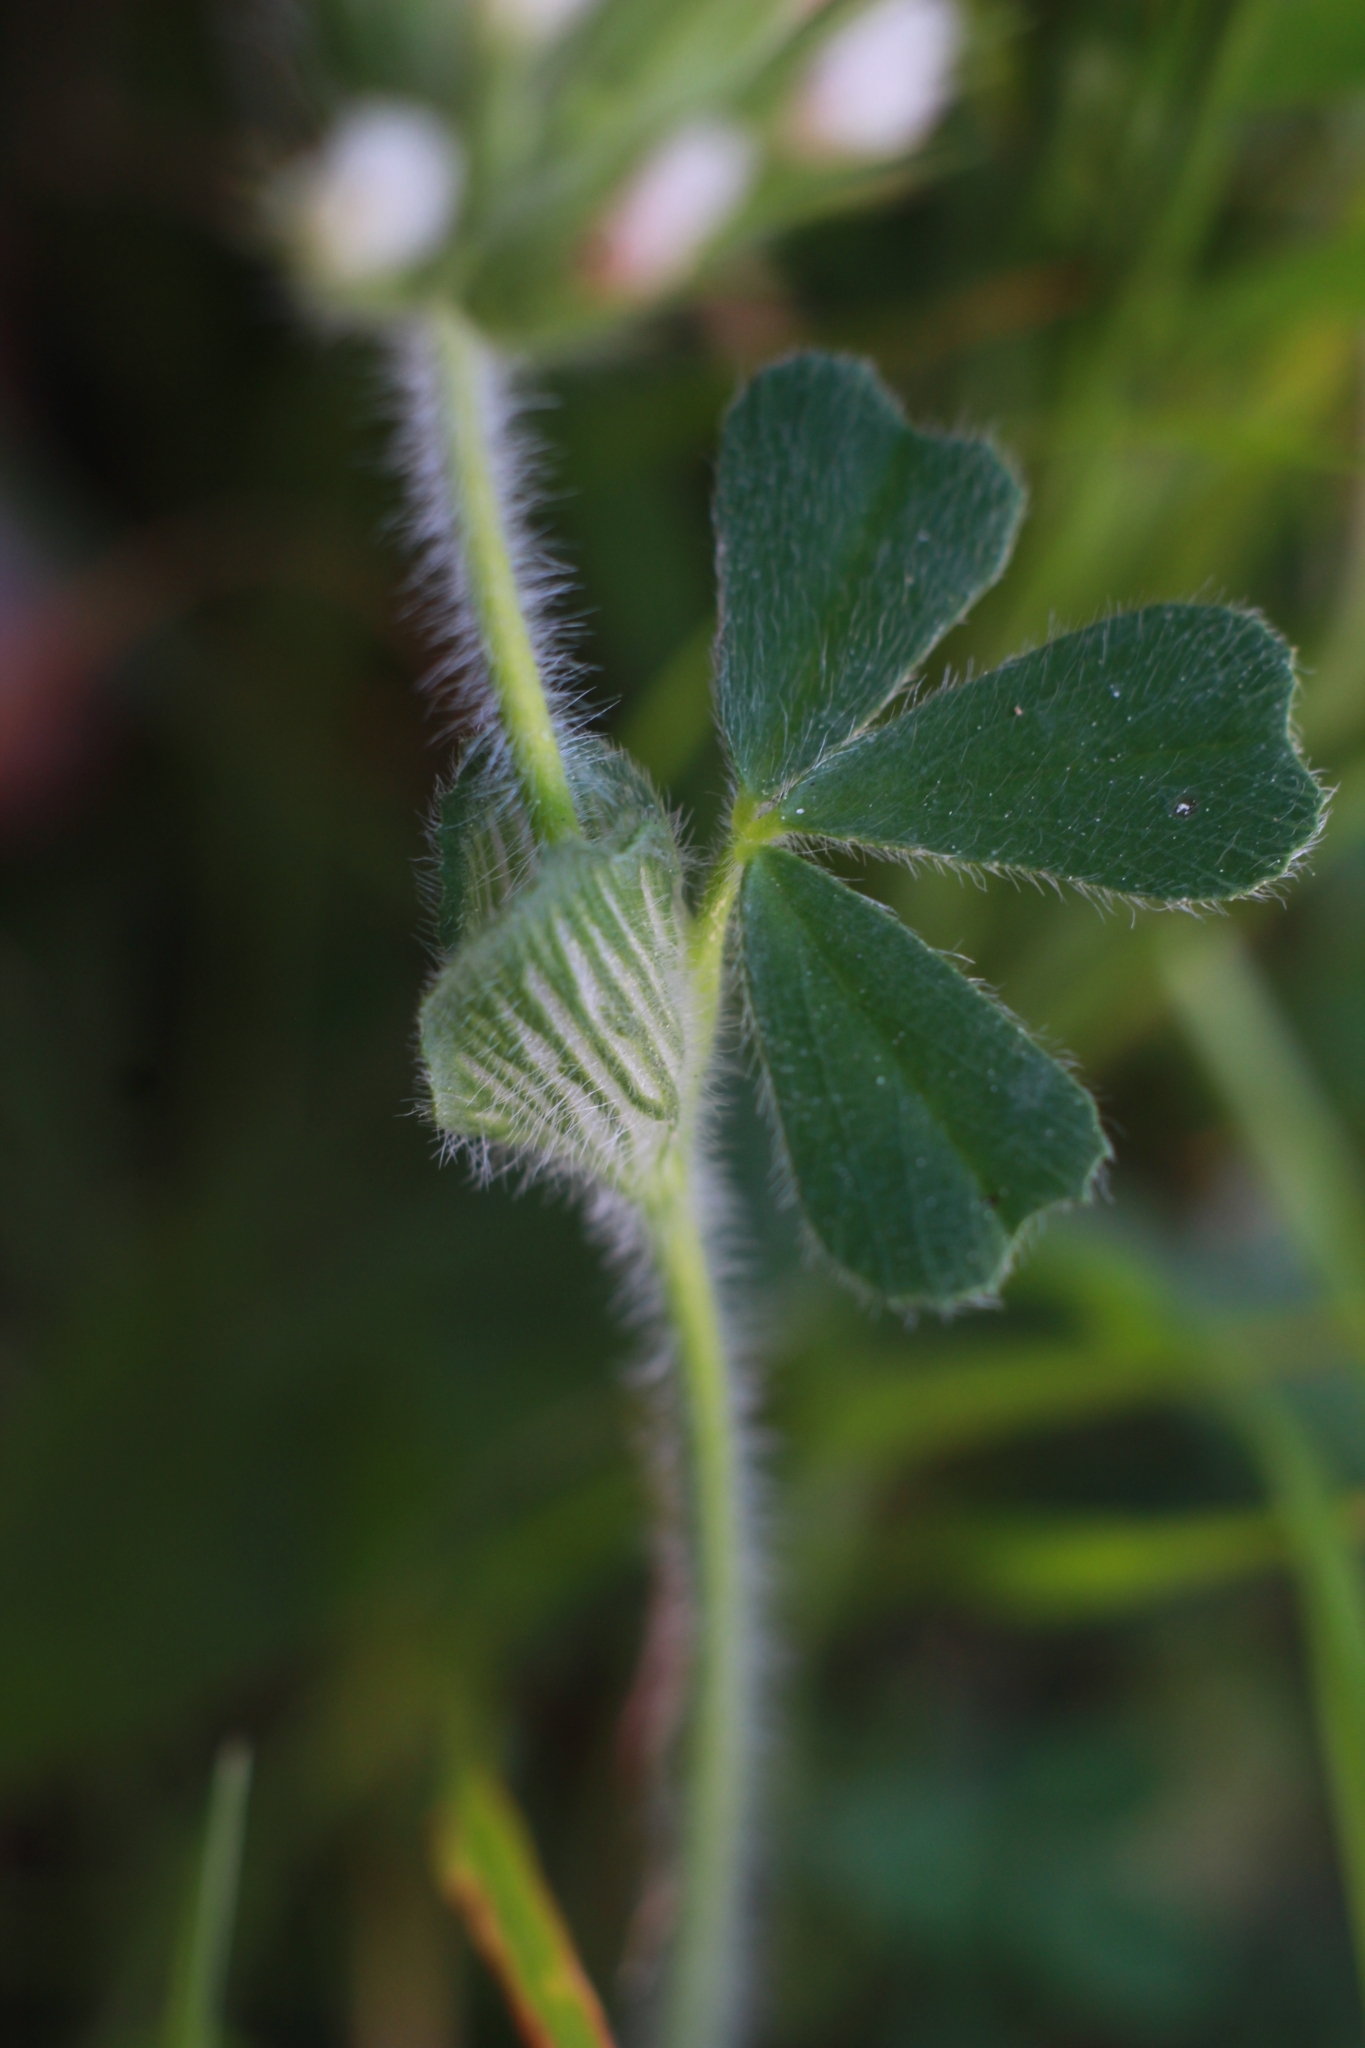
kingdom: Plantae
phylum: Tracheophyta
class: Magnoliopsida
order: Fabales
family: Fabaceae
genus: Trifolium
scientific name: Trifolium stellatum
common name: Starry clover
